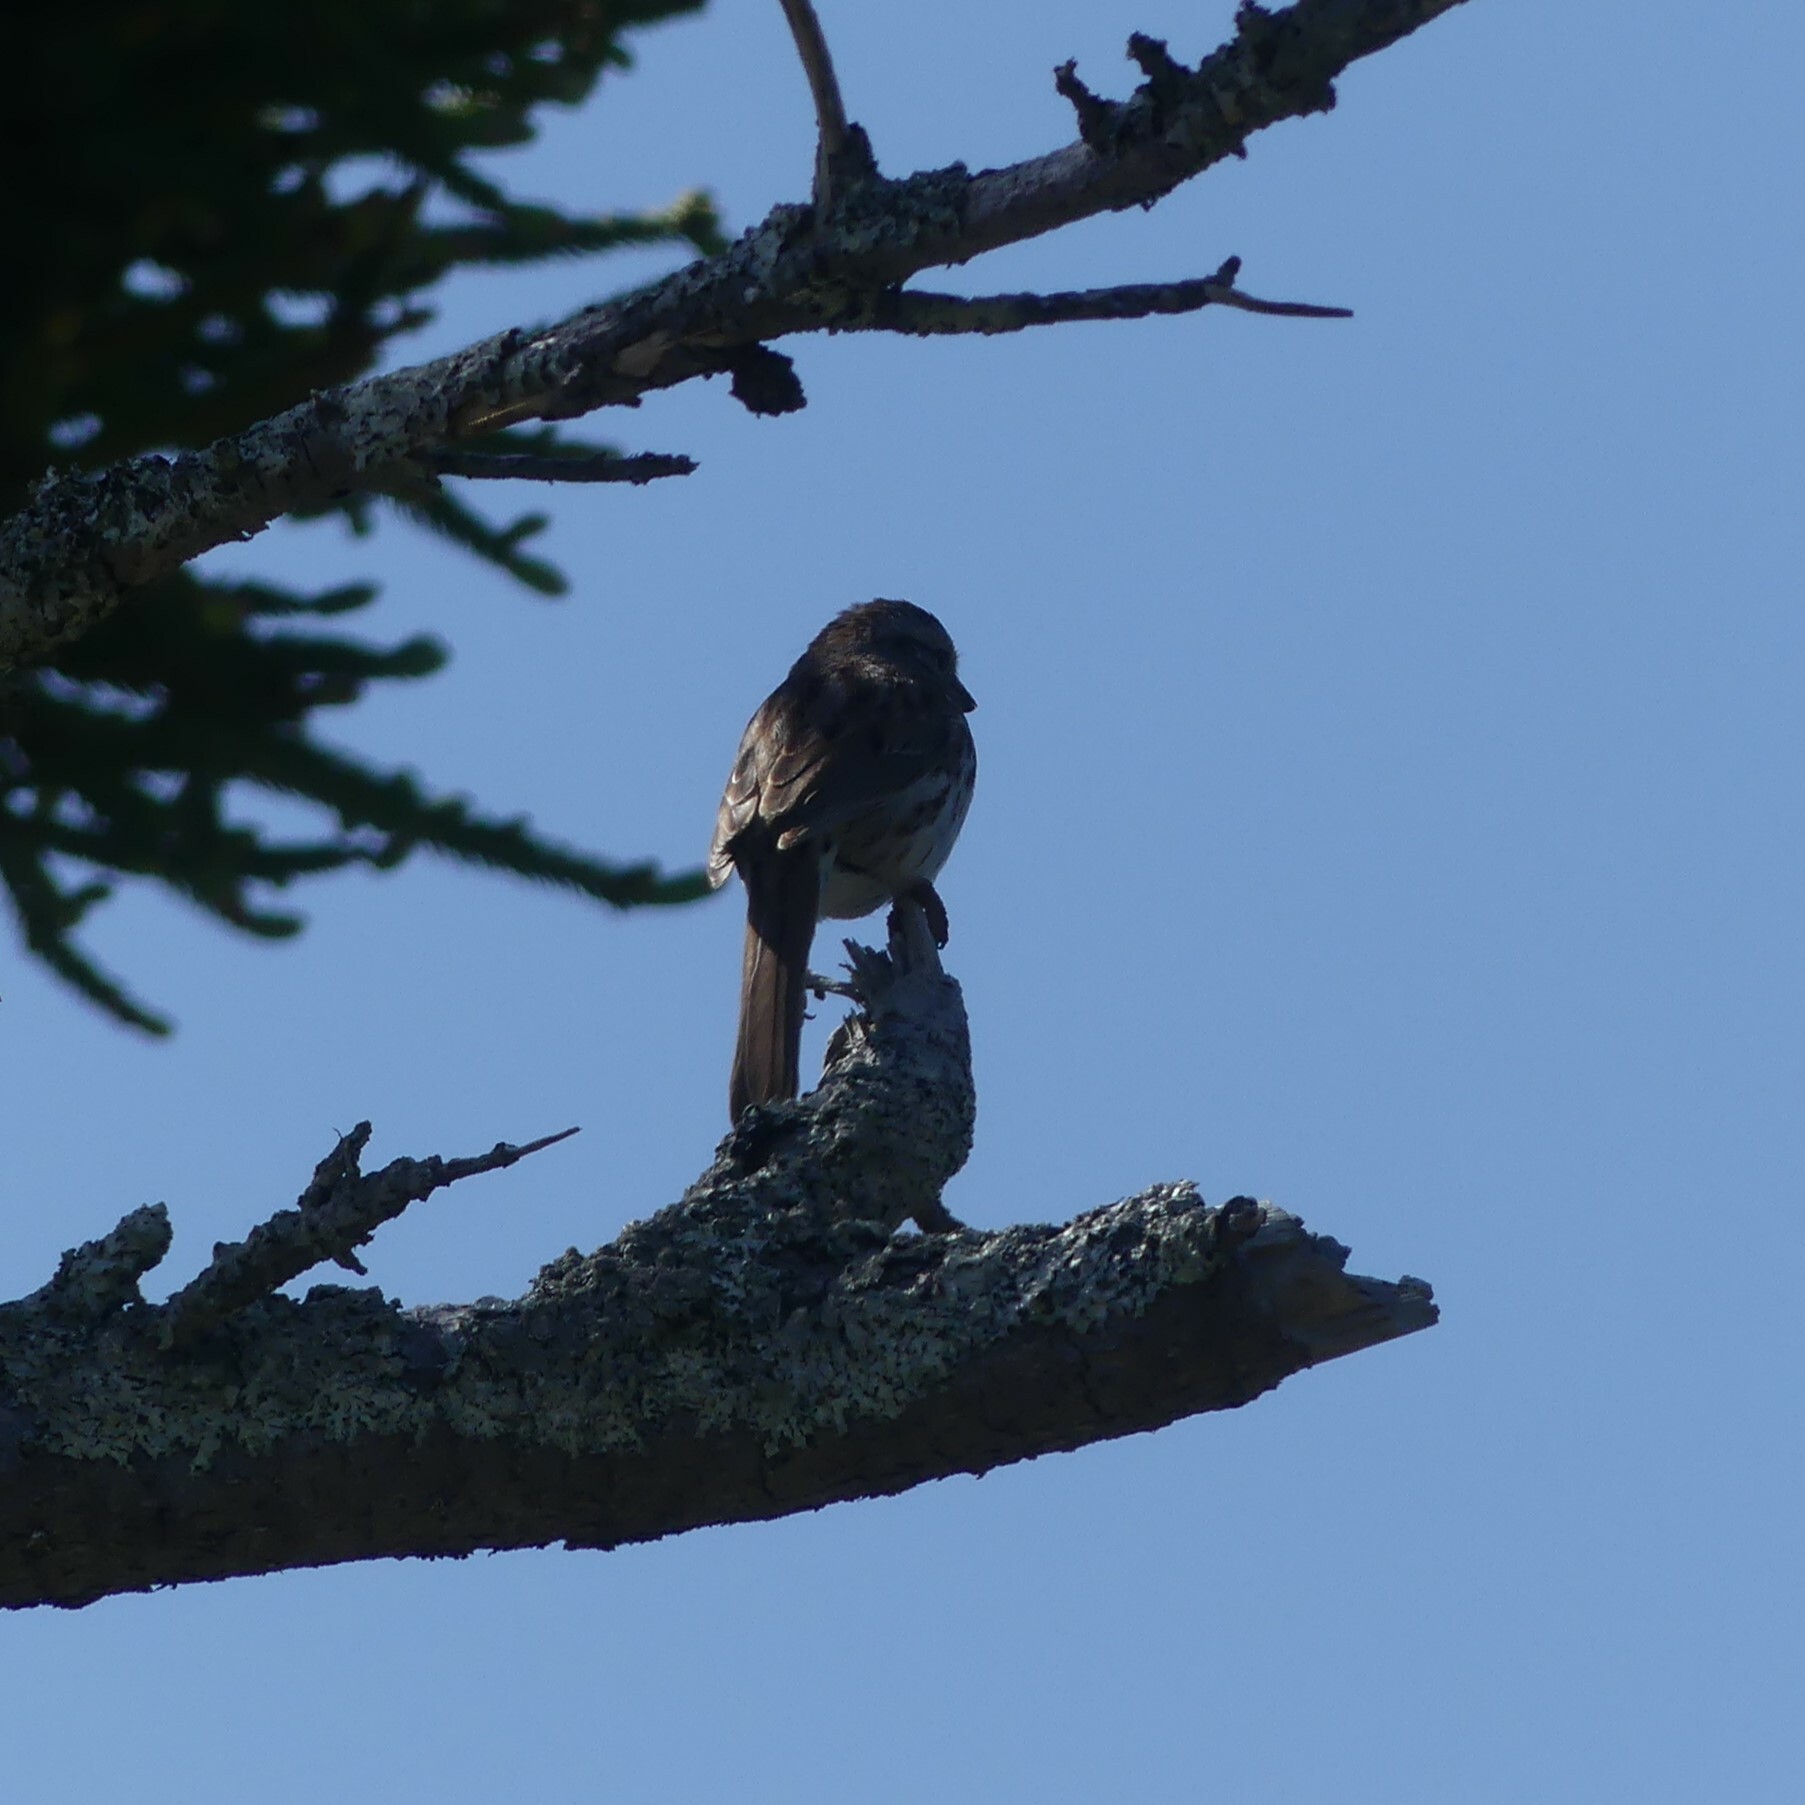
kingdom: Animalia
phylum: Chordata
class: Aves
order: Passeriformes
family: Passerellidae
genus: Melospiza
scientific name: Melospiza melodia
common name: Song sparrow
